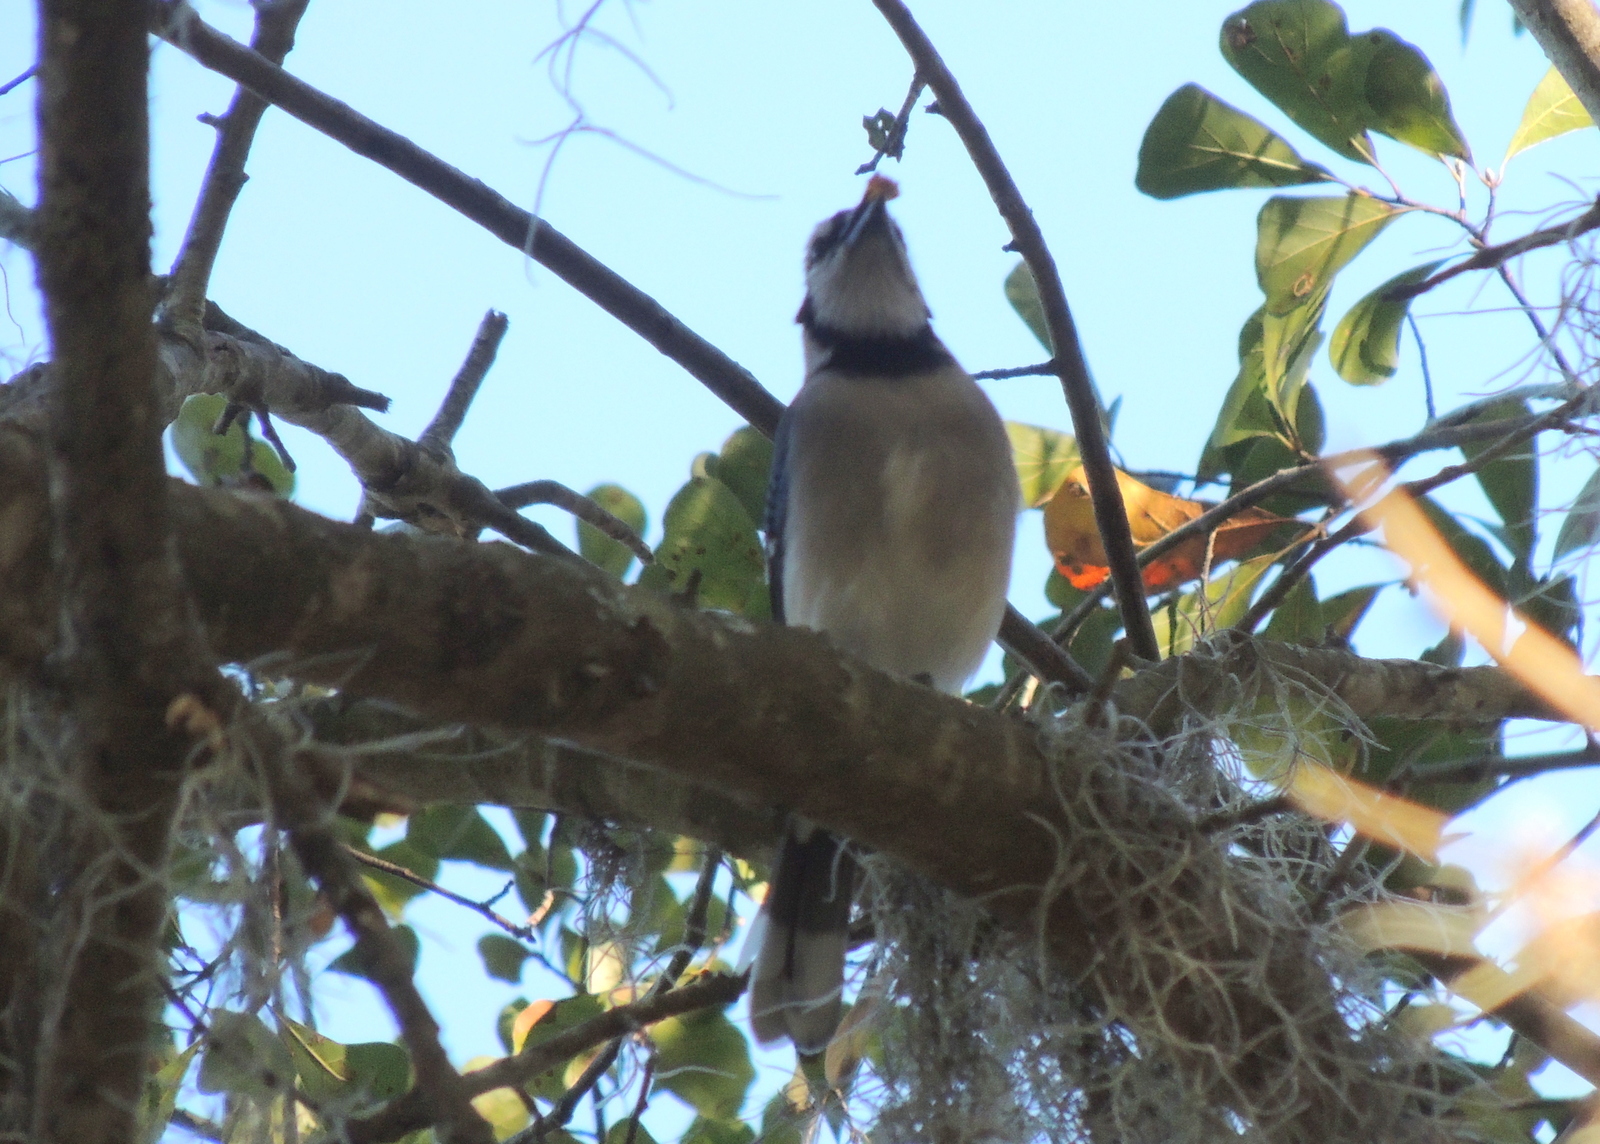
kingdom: Animalia
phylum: Chordata
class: Aves
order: Passeriformes
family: Corvidae
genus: Cyanocitta
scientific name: Cyanocitta cristata
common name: Blue jay
